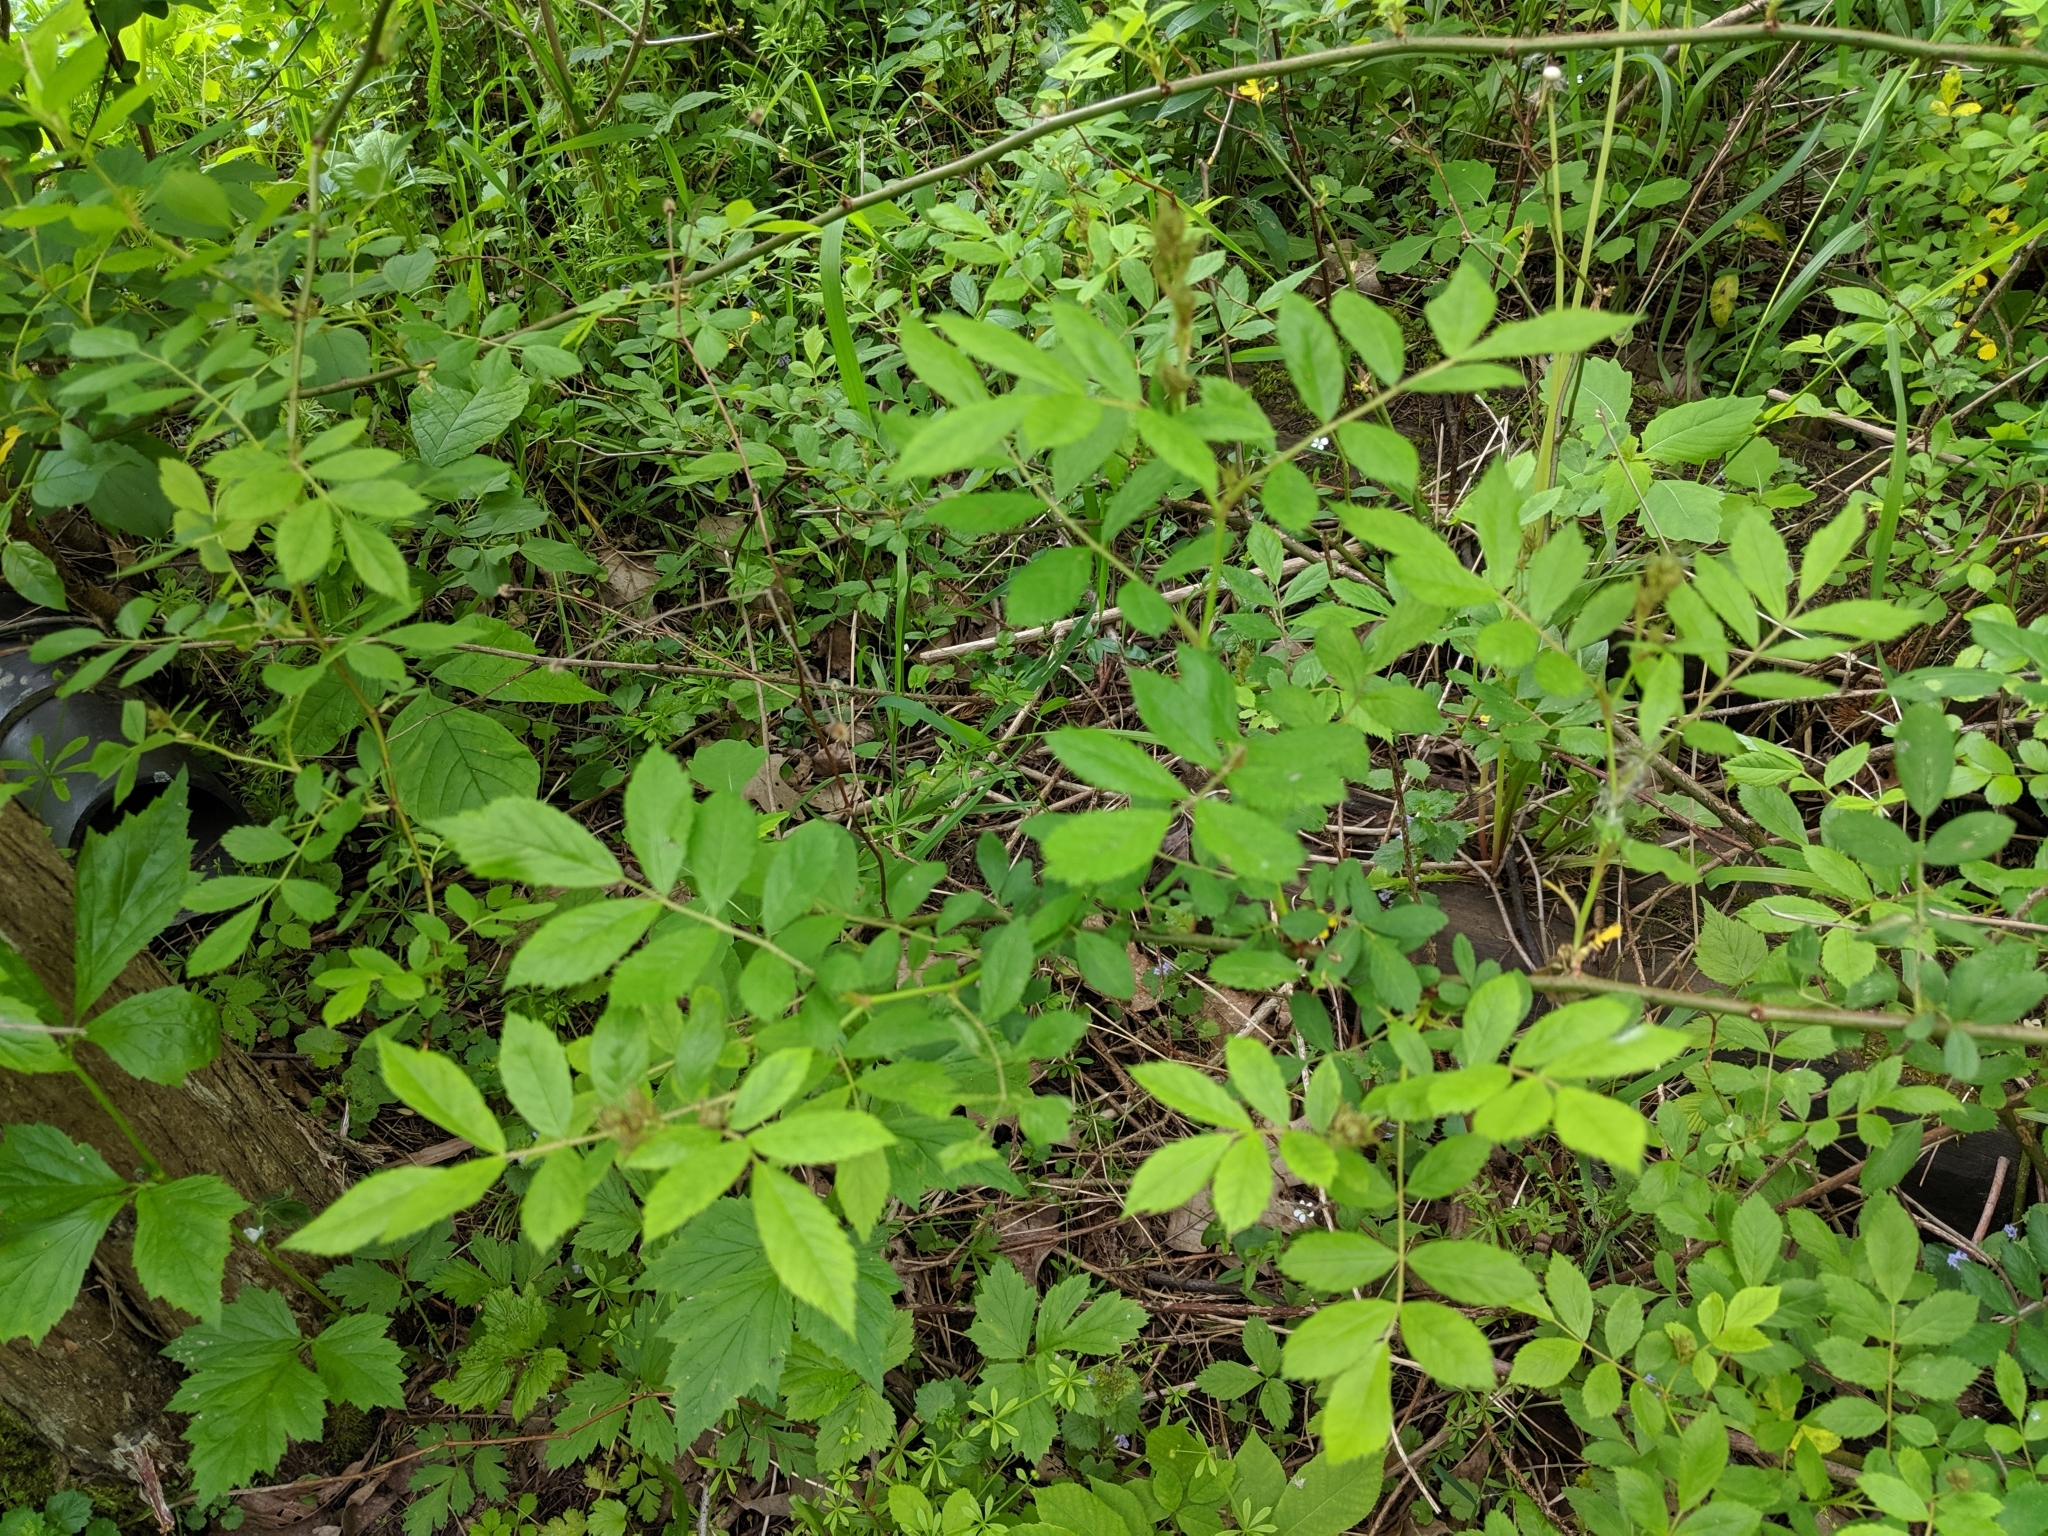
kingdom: Plantae
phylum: Tracheophyta
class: Magnoliopsida
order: Rosales
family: Rosaceae
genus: Rosa
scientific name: Rosa multiflora
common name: Multiflora rose
